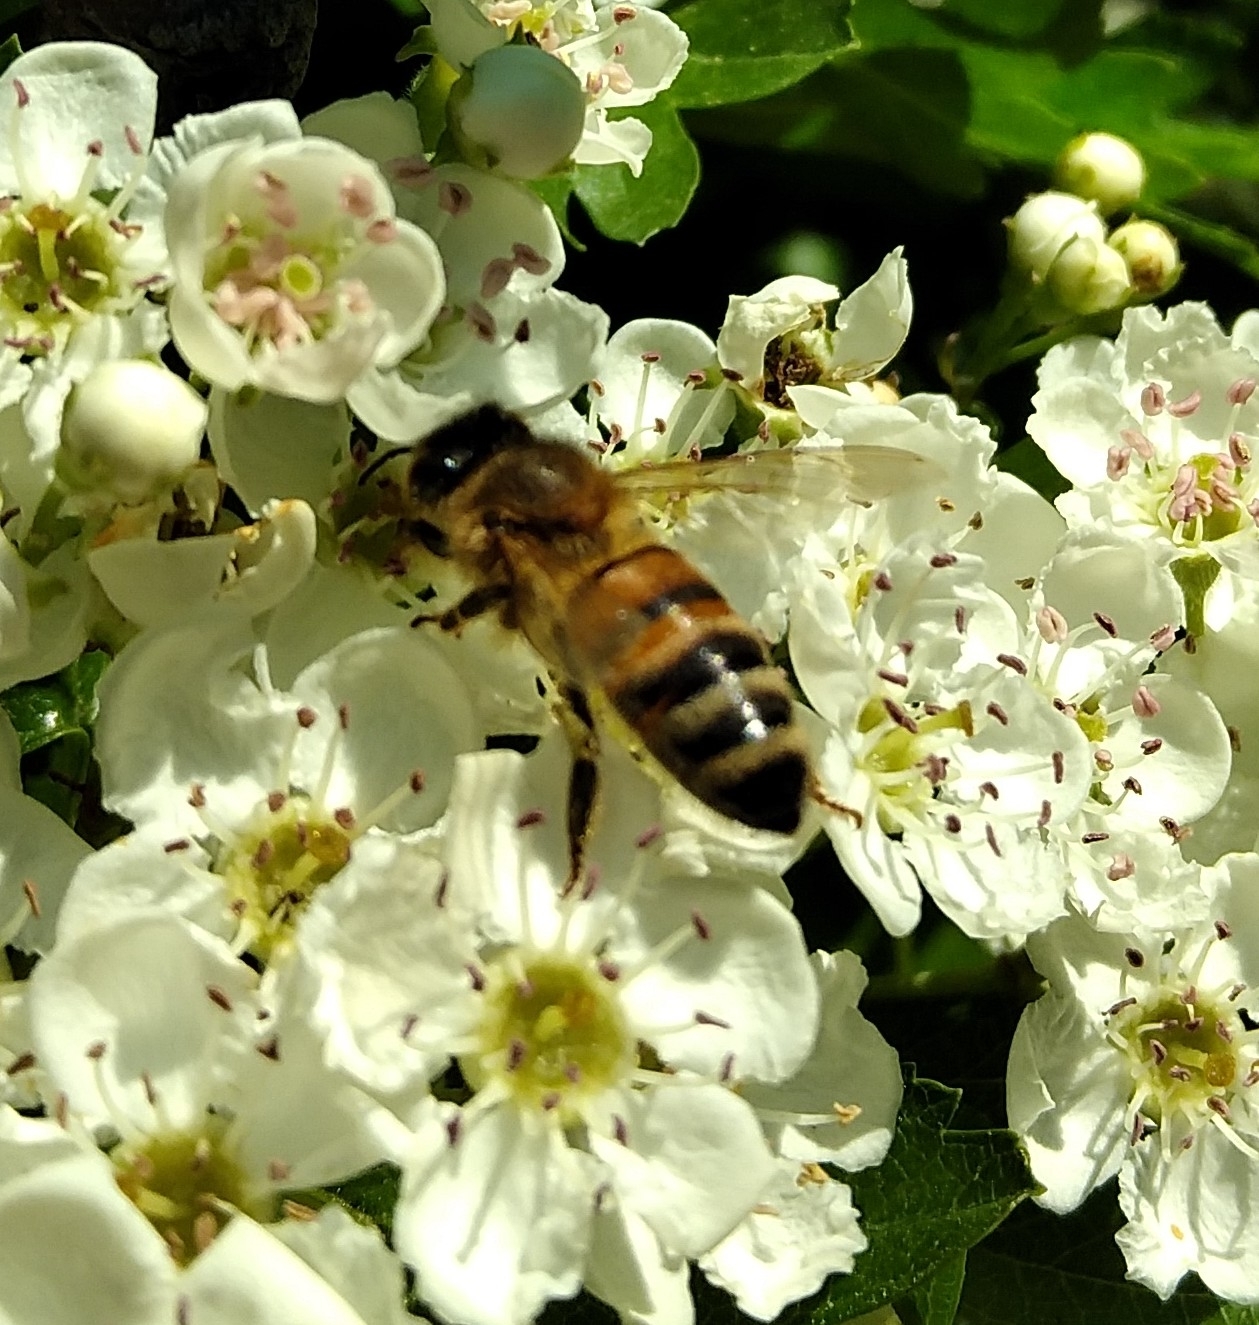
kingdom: Animalia
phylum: Arthropoda
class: Insecta
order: Hymenoptera
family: Apidae
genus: Apis
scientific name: Apis mellifera
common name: Honey bee
